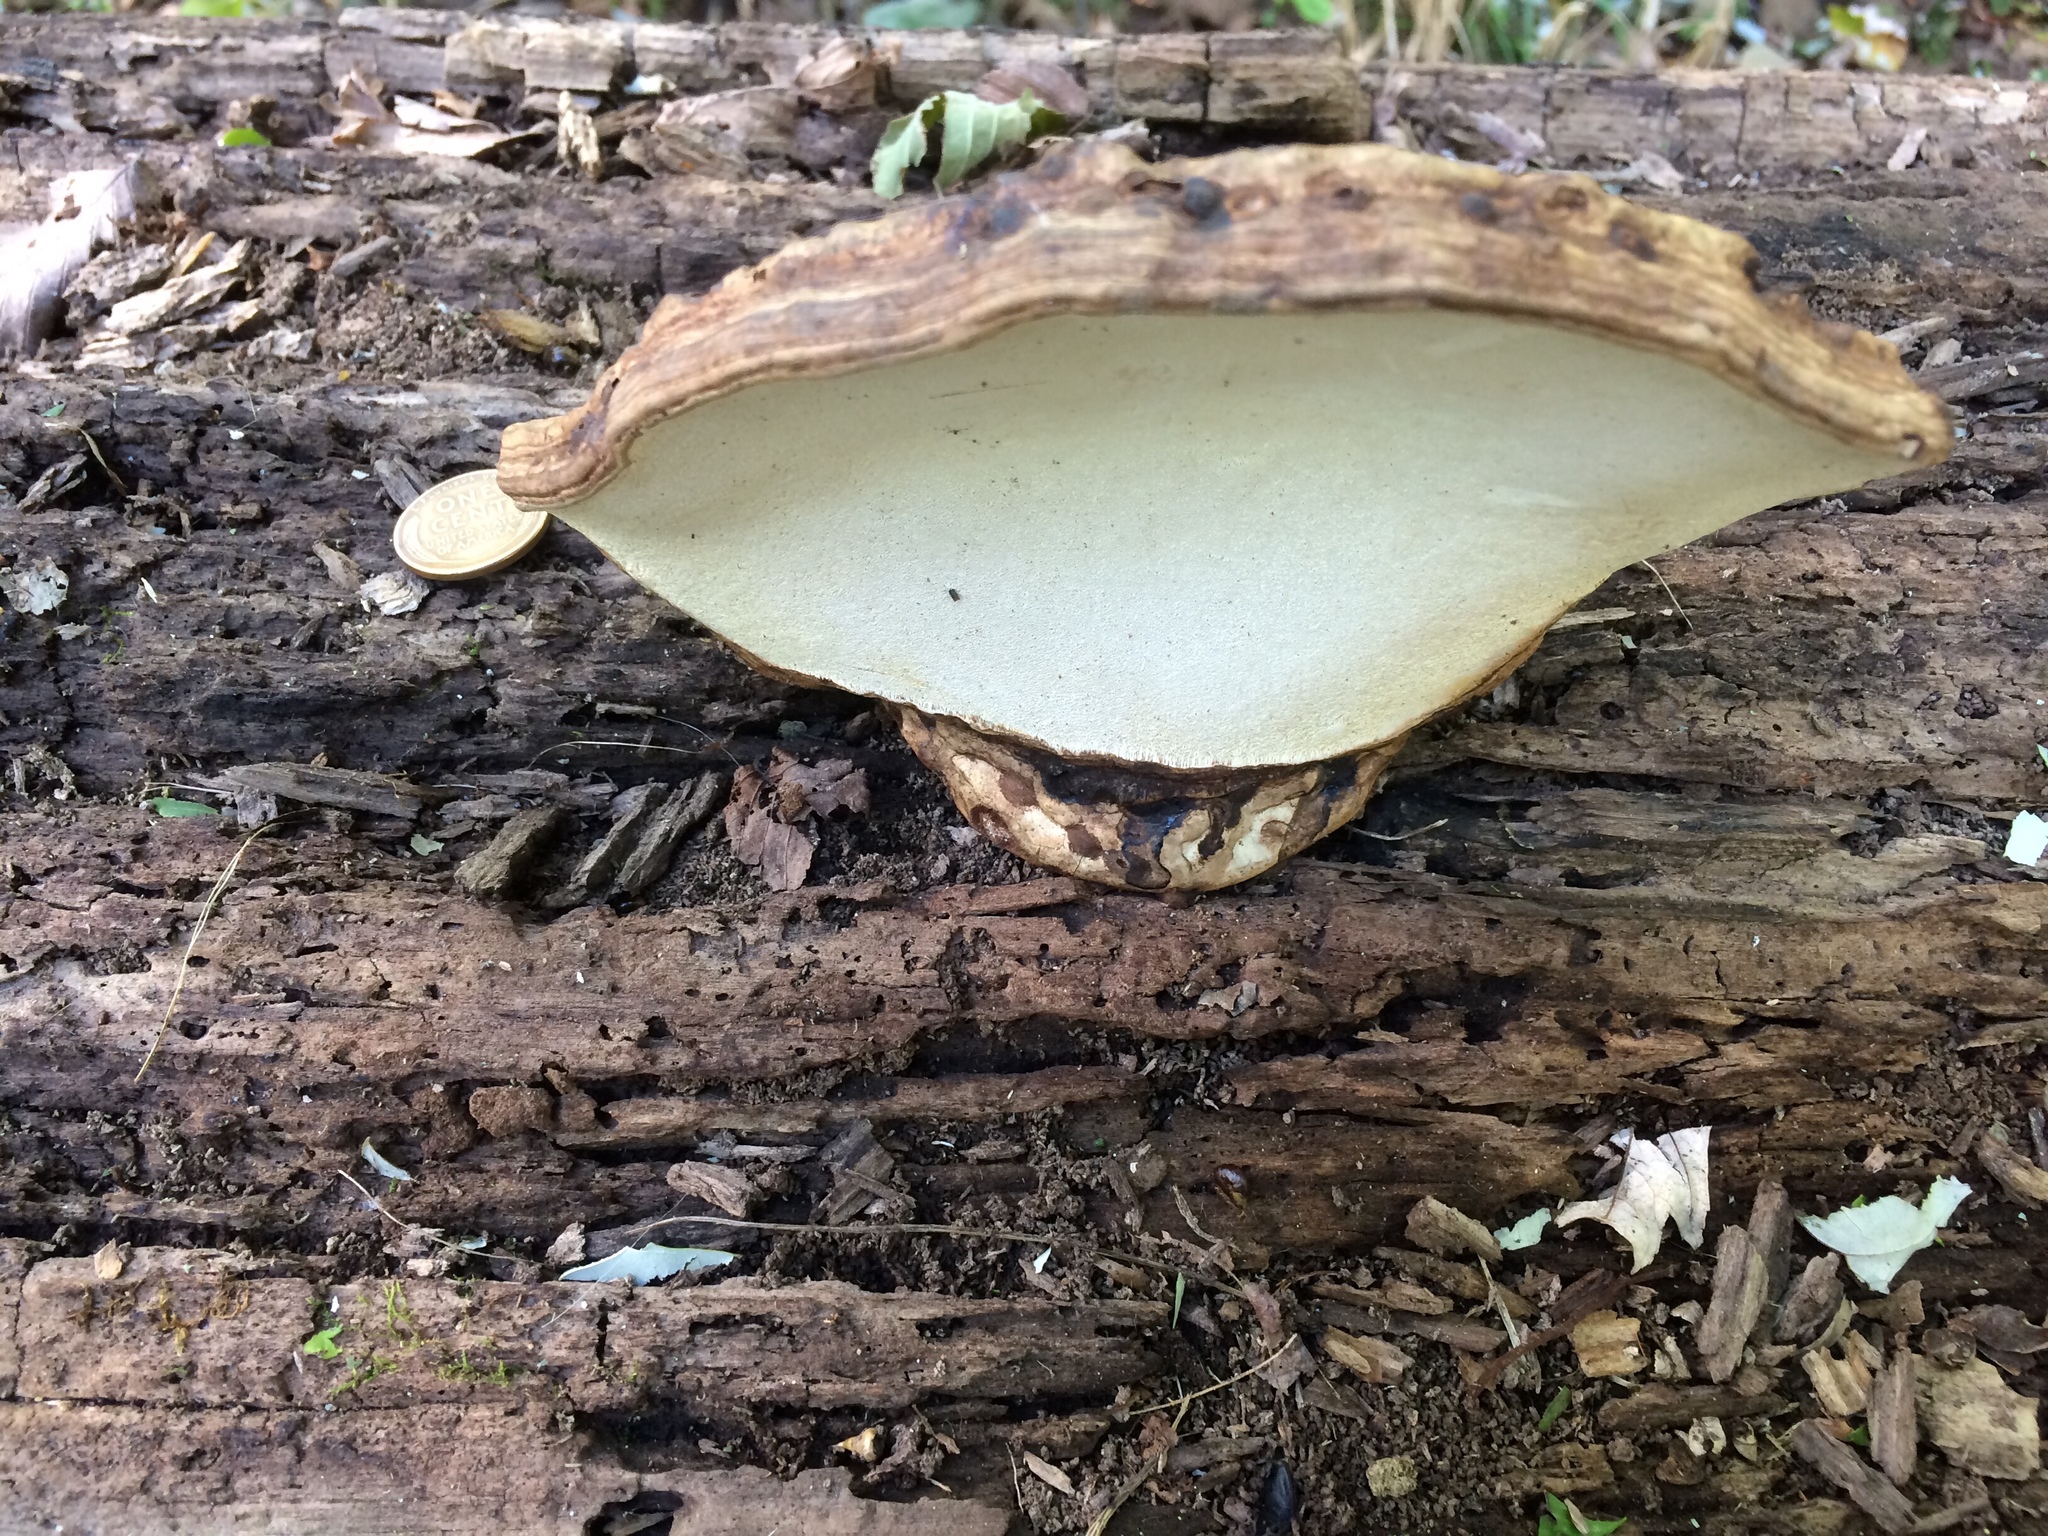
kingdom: Fungi
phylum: Basidiomycota
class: Agaricomycetes
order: Polyporales
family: Polyporaceae
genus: Ganoderma
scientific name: Ganoderma applanatum
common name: Artist's bracket
